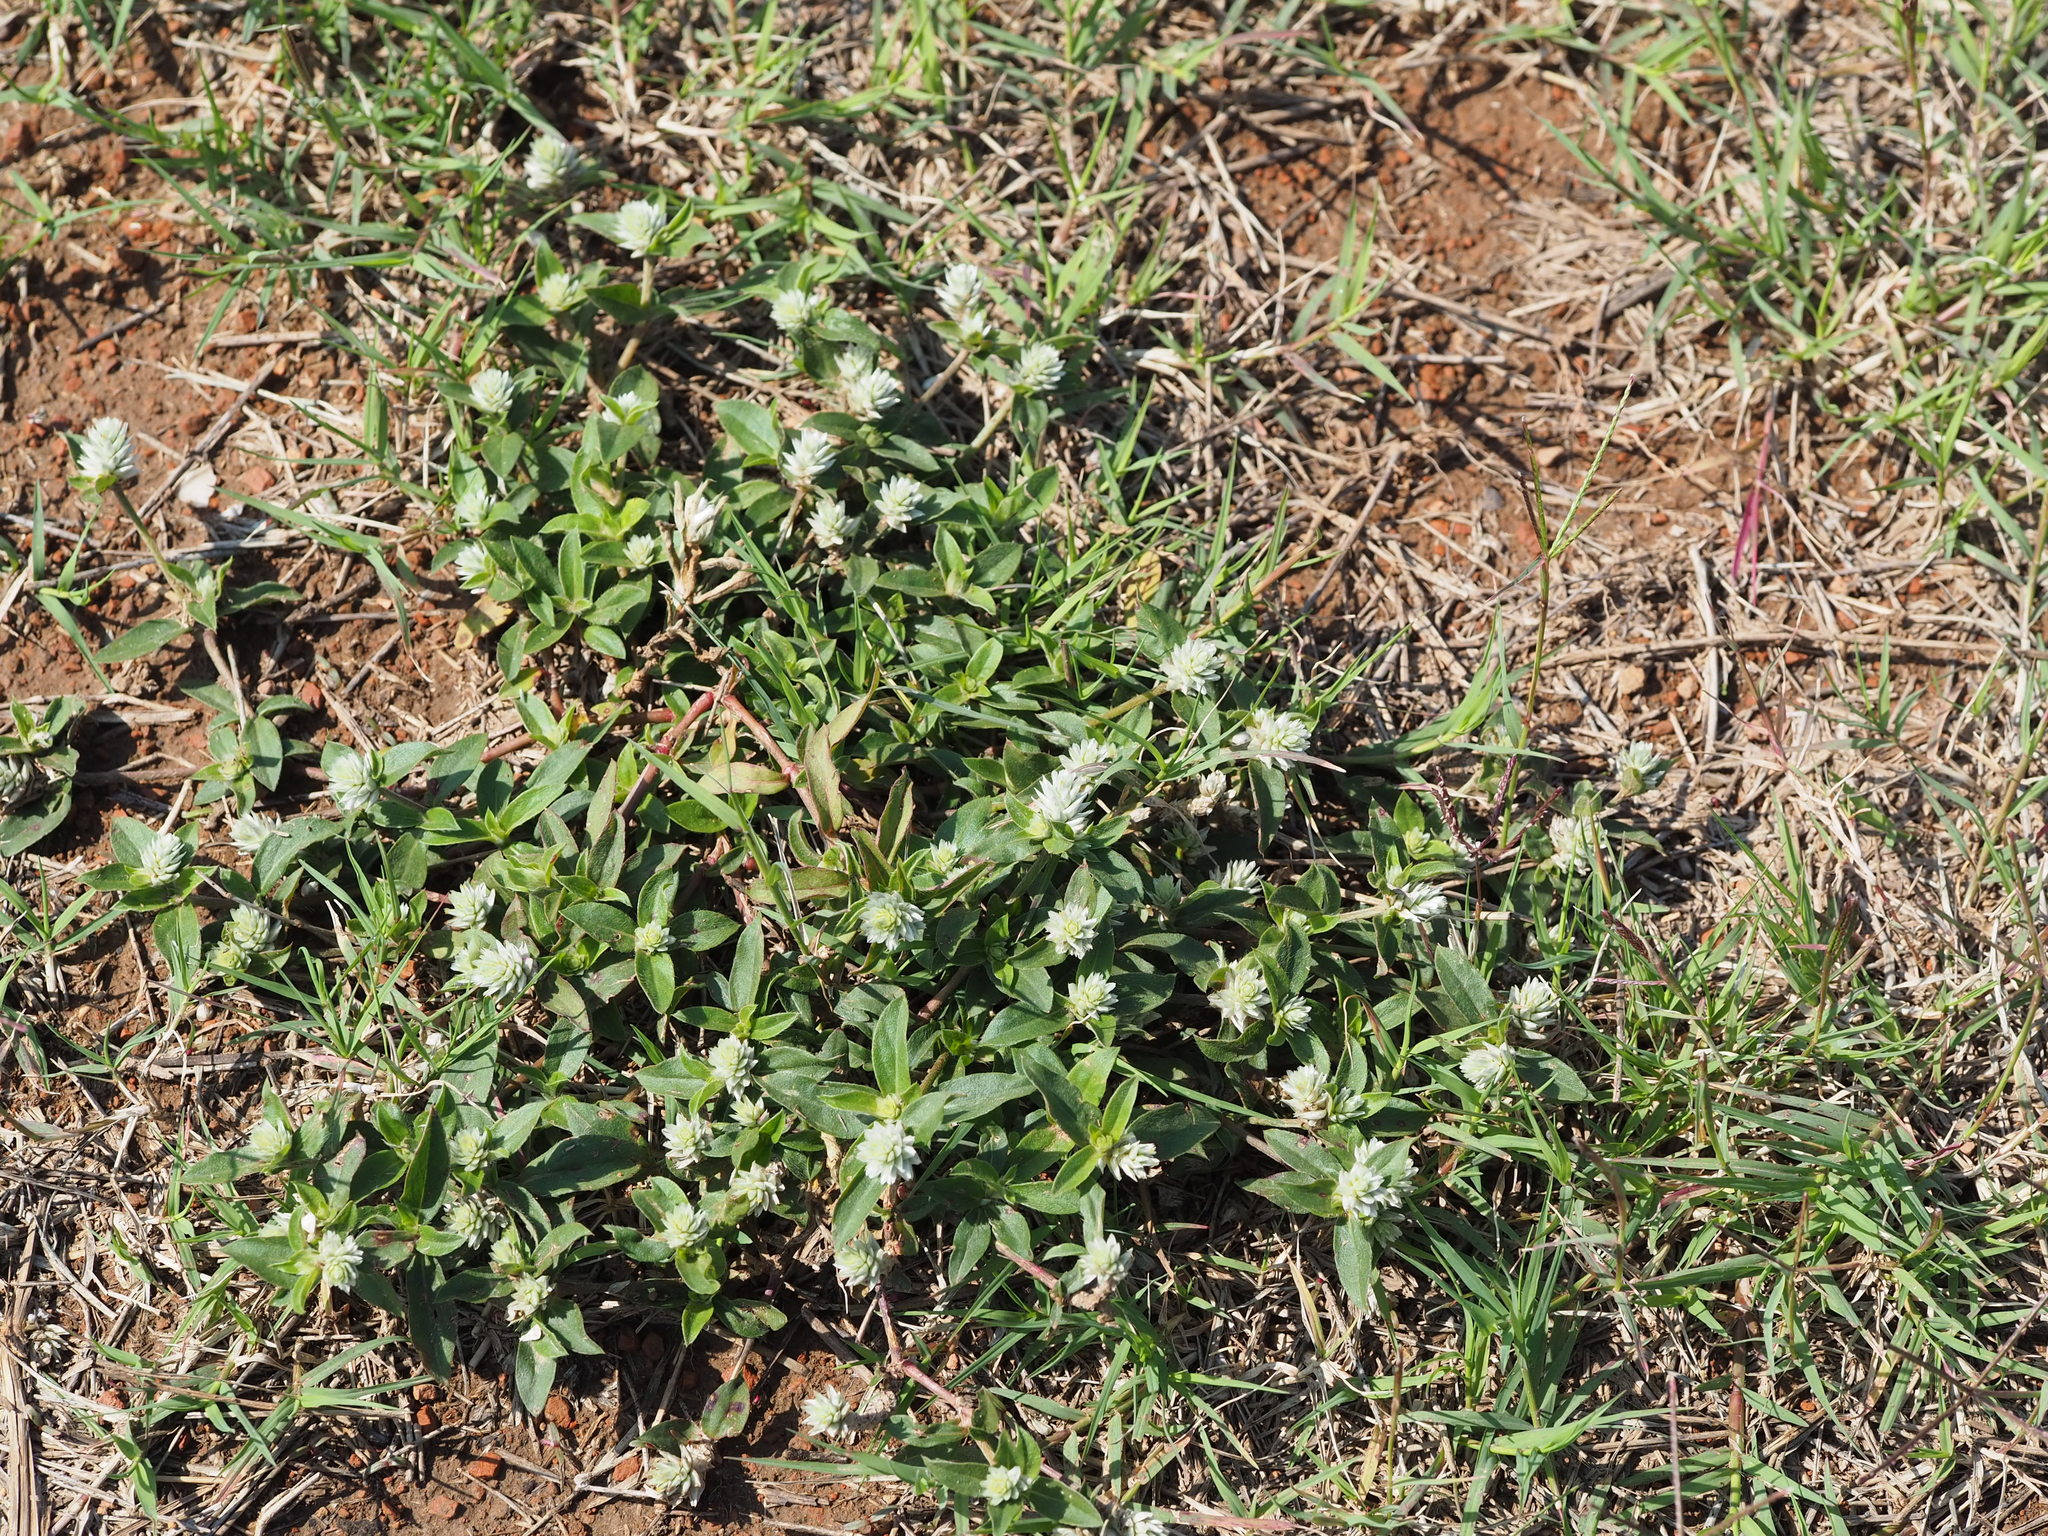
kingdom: Plantae
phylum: Tracheophyta
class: Magnoliopsida
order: Caryophyllales
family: Amaranthaceae
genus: Gomphrena
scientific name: Gomphrena serrata
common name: Arrasa con todo
